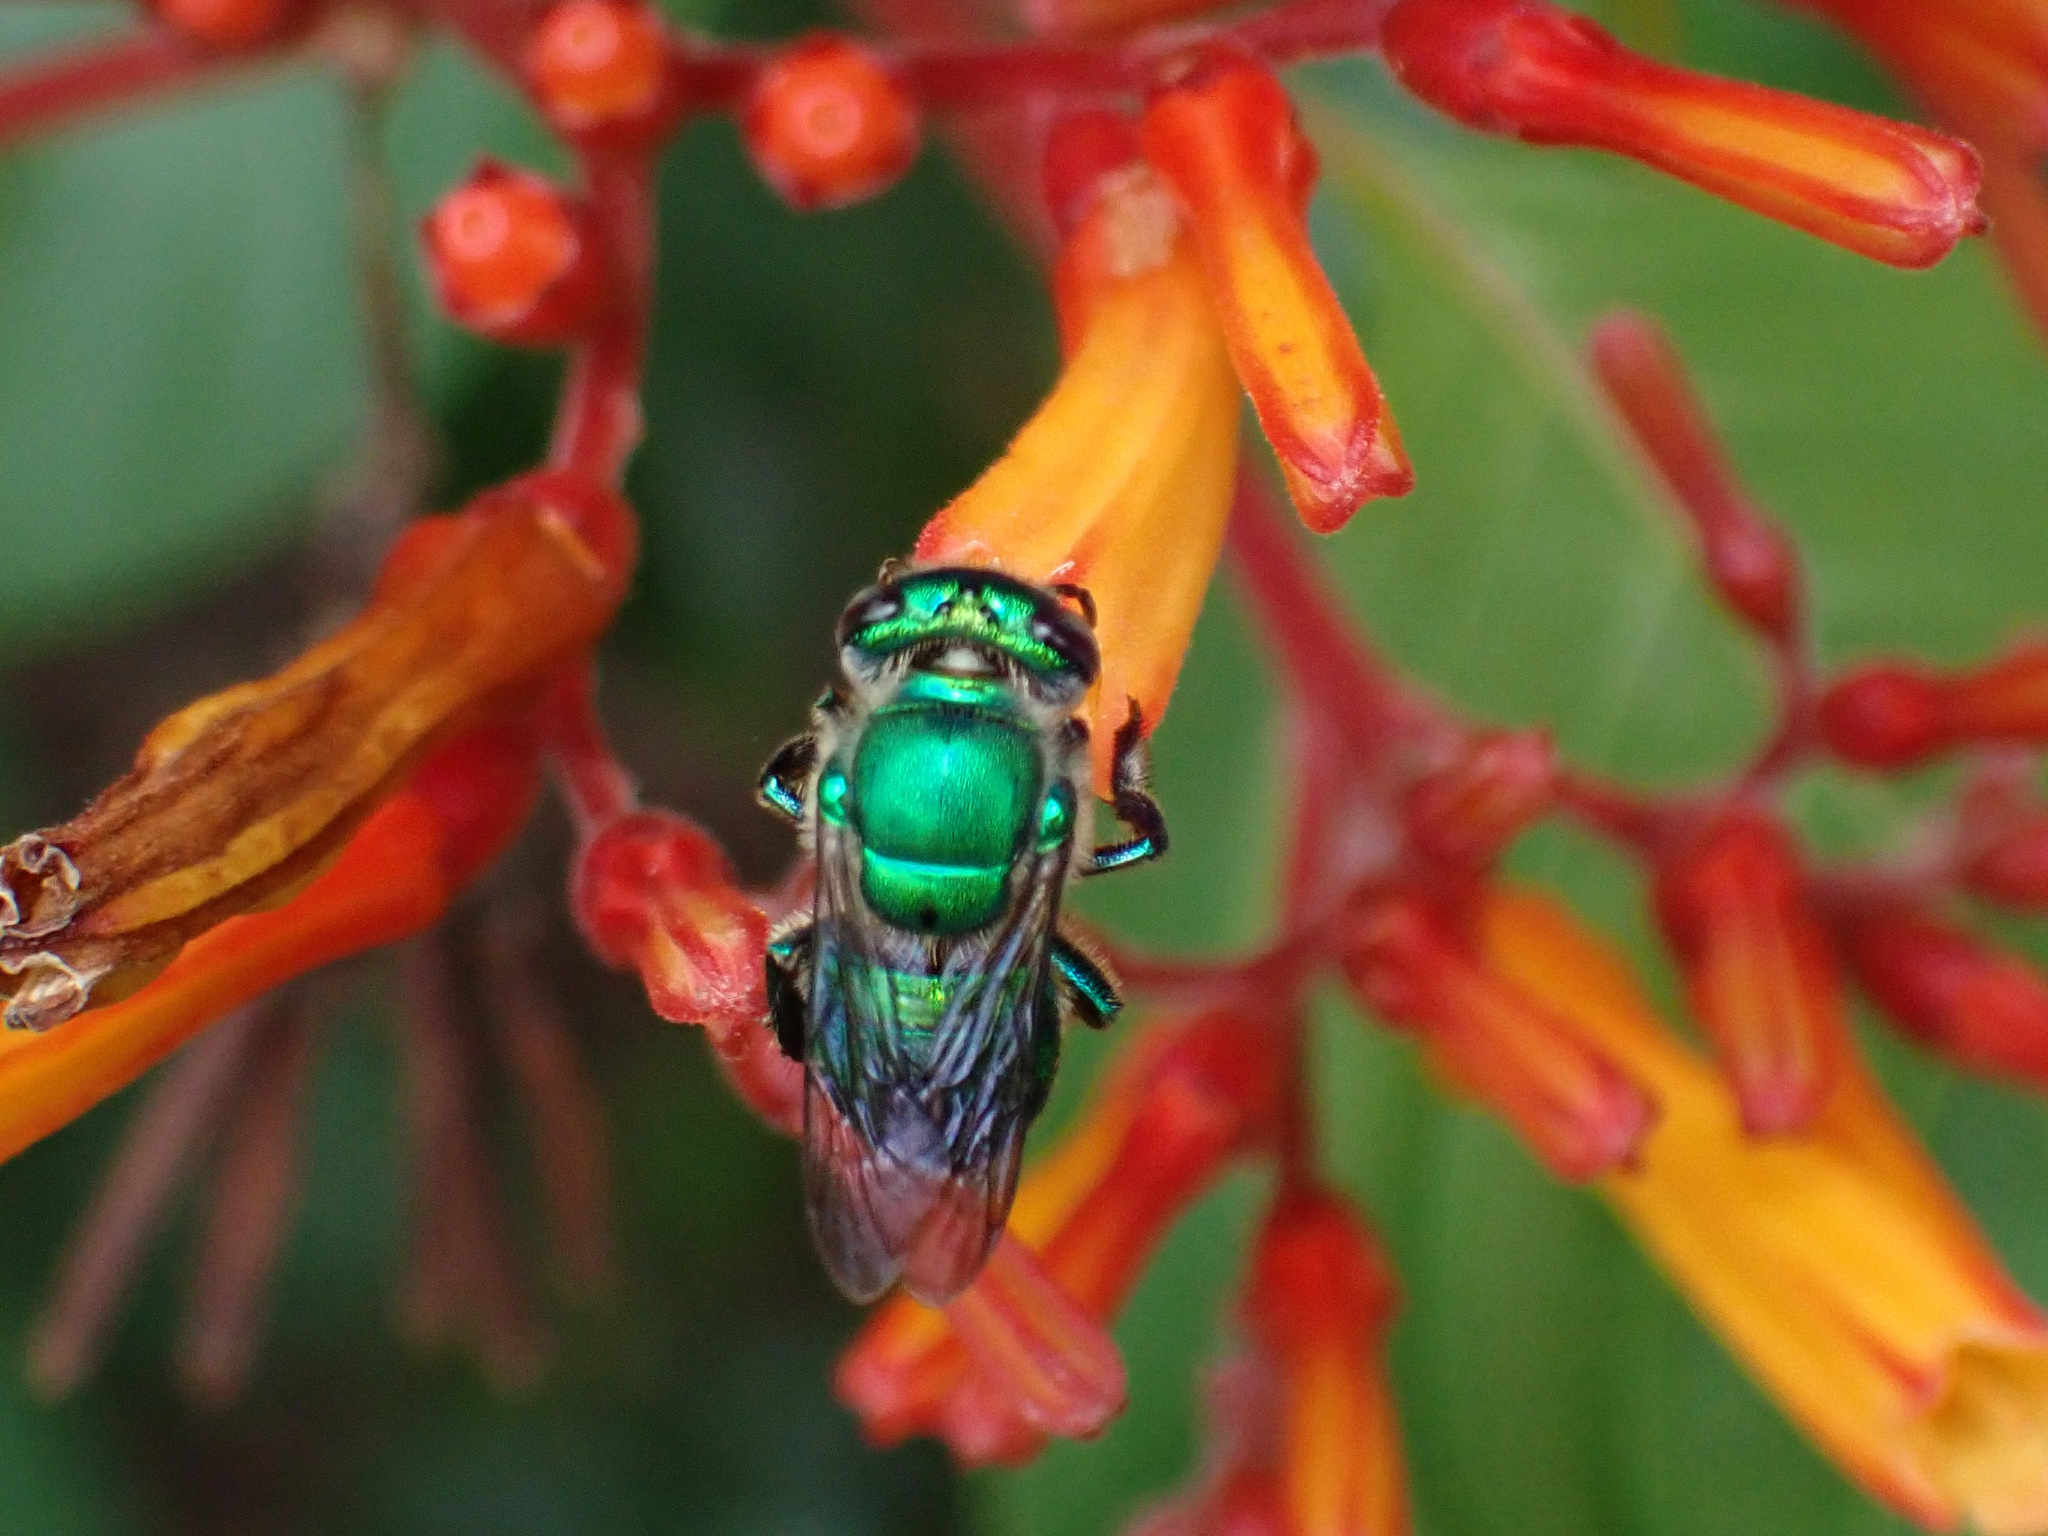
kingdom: Animalia
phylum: Arthropoda
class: Insecta
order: Hymenoptera
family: Apidae
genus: Euglossa
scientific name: Euglossa dilemma
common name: Green orchid bee
